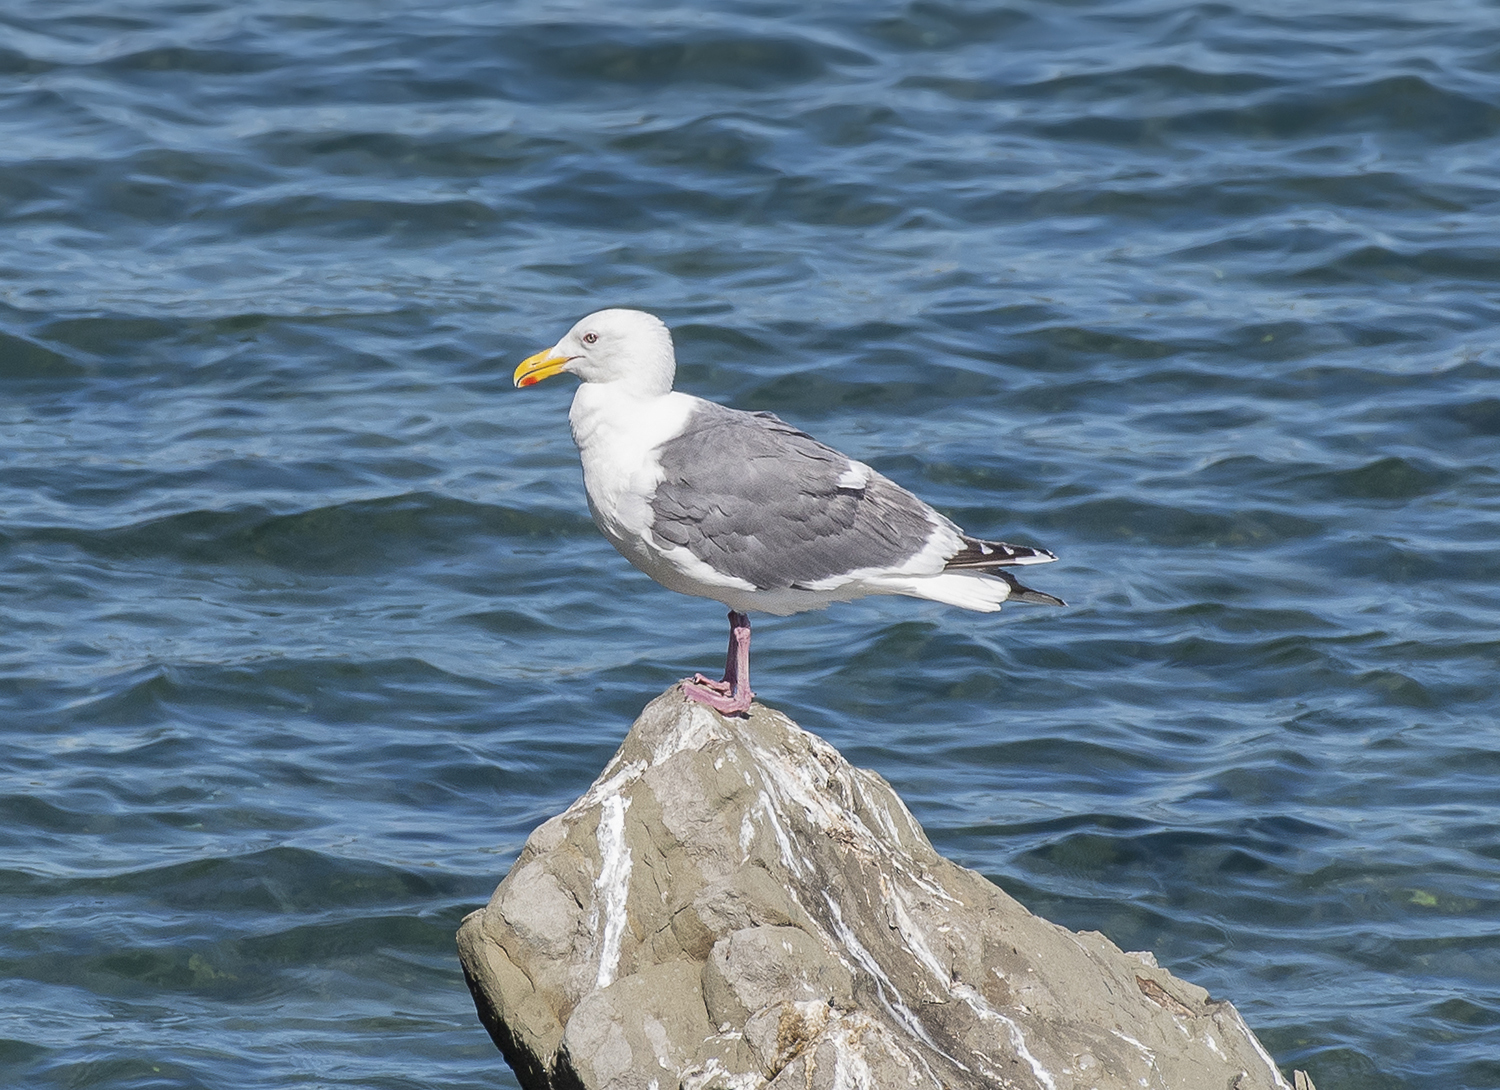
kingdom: Animalia
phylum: Chordata
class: Aves
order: Charadriiformes
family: Laridae
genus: Larus
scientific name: Larus schistisagus
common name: Slaty-backed gull
